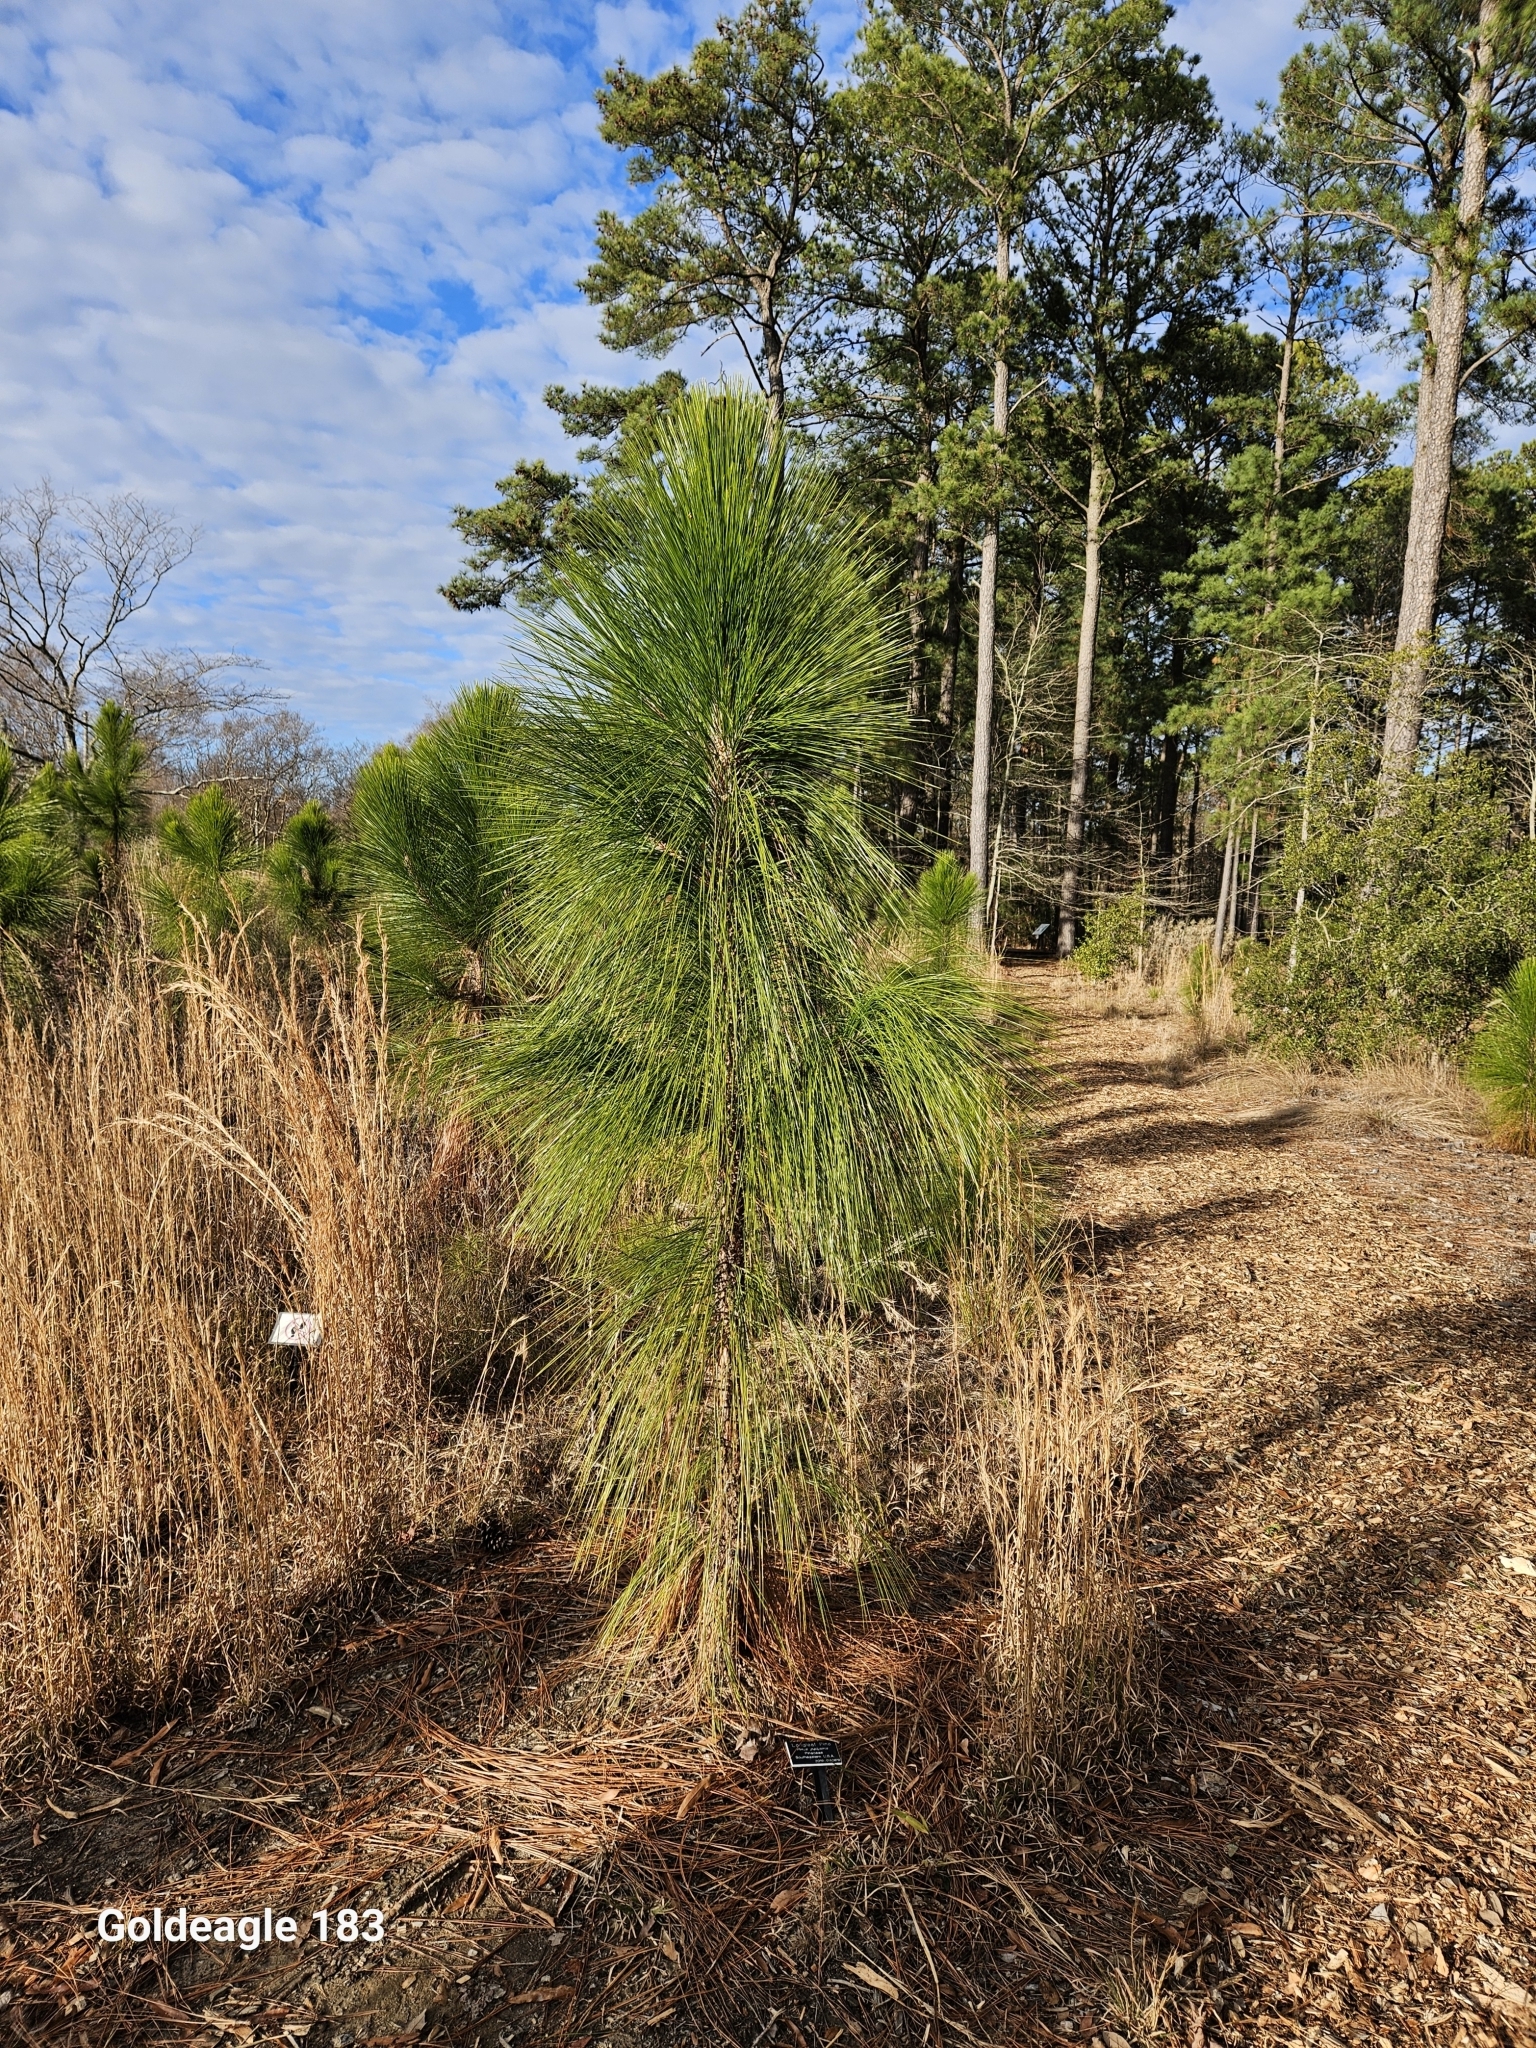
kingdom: Plantae
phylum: Tracheophyta
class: Pinopsida
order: Pinales
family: Pinaceae
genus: Pinus
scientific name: Pinus palustris
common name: Longleaf pine
